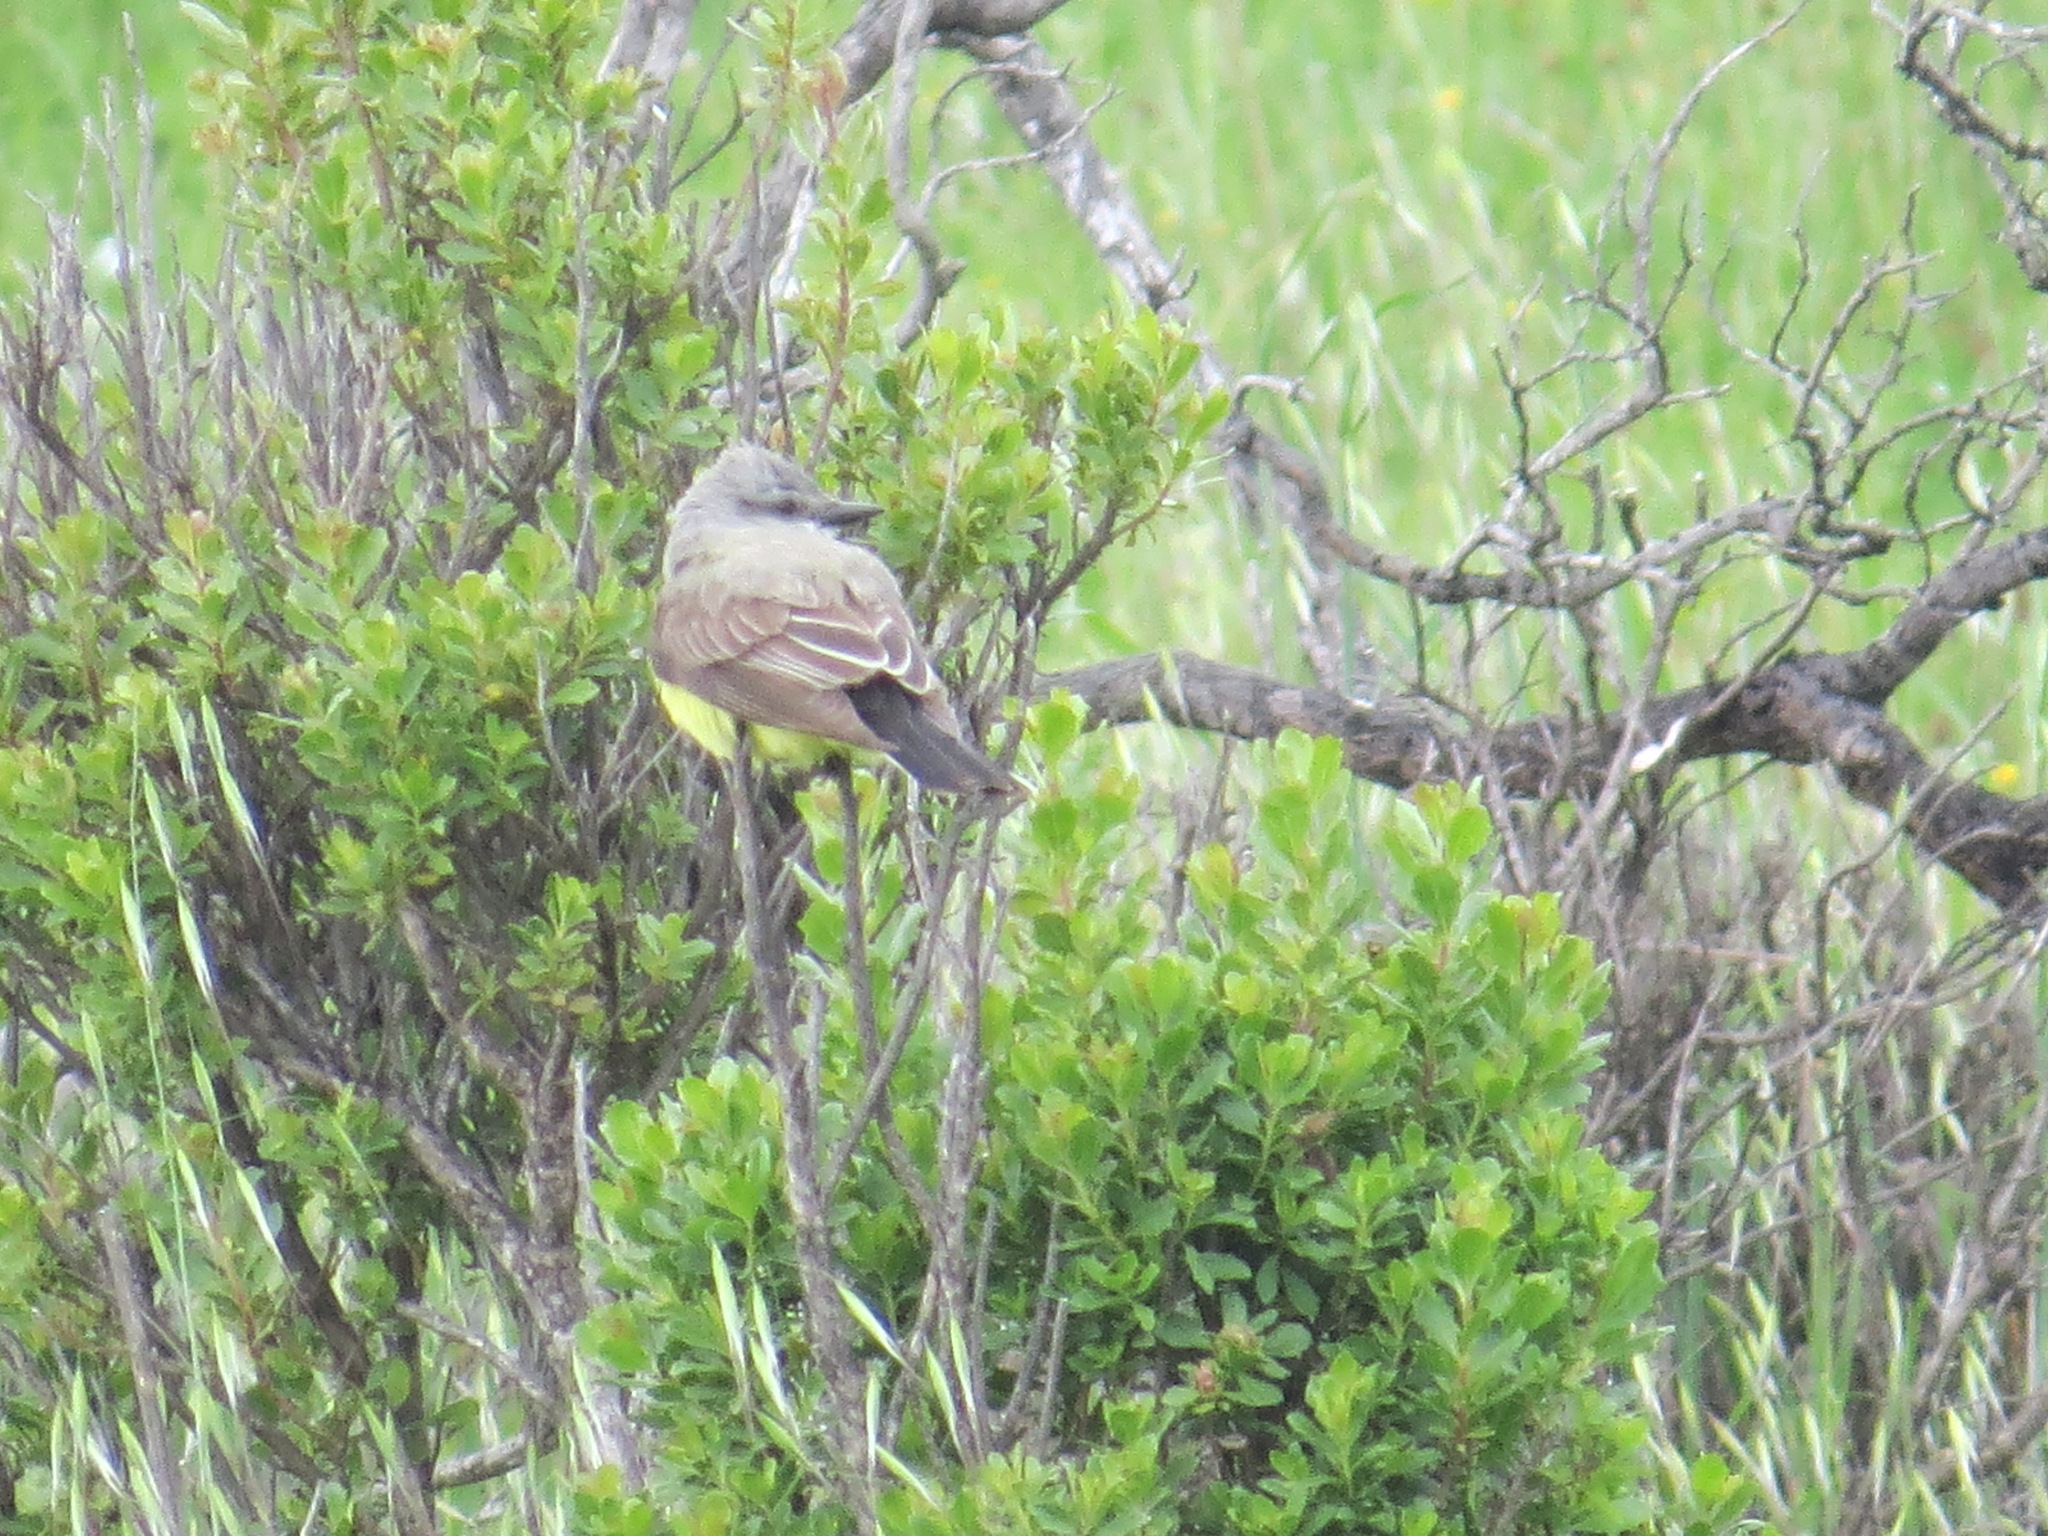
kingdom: Animalia
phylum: Chordata
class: Aves
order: Passeriformes
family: Tyrannidae
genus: Tyrannus
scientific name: Tyrannus verticalis
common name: Western kingbird
